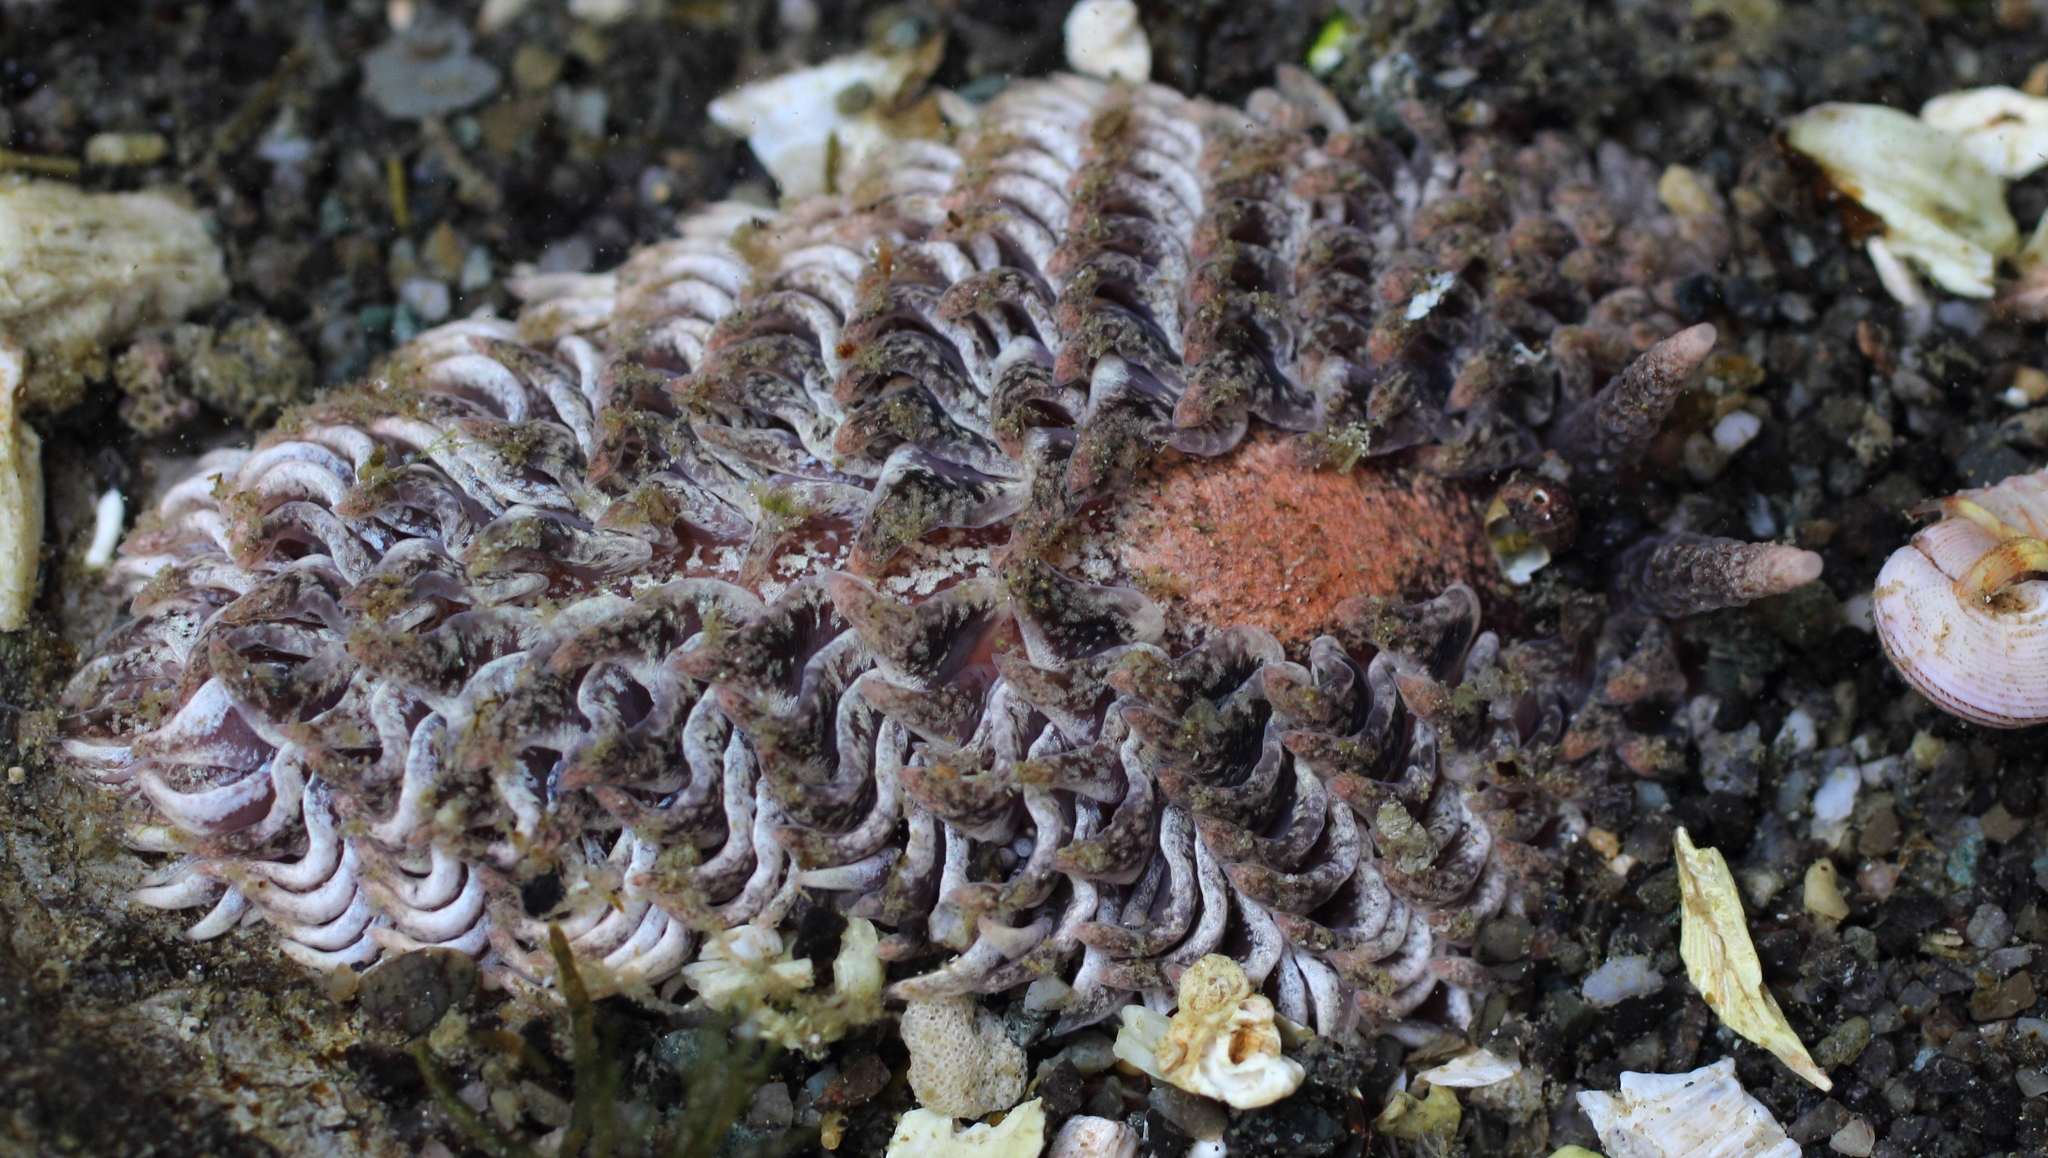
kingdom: Animalia
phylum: Mollusca
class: Gastropoda
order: Nudibranchia
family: Aeolidiidae
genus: Aeolidia
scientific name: Aeolidia loui
